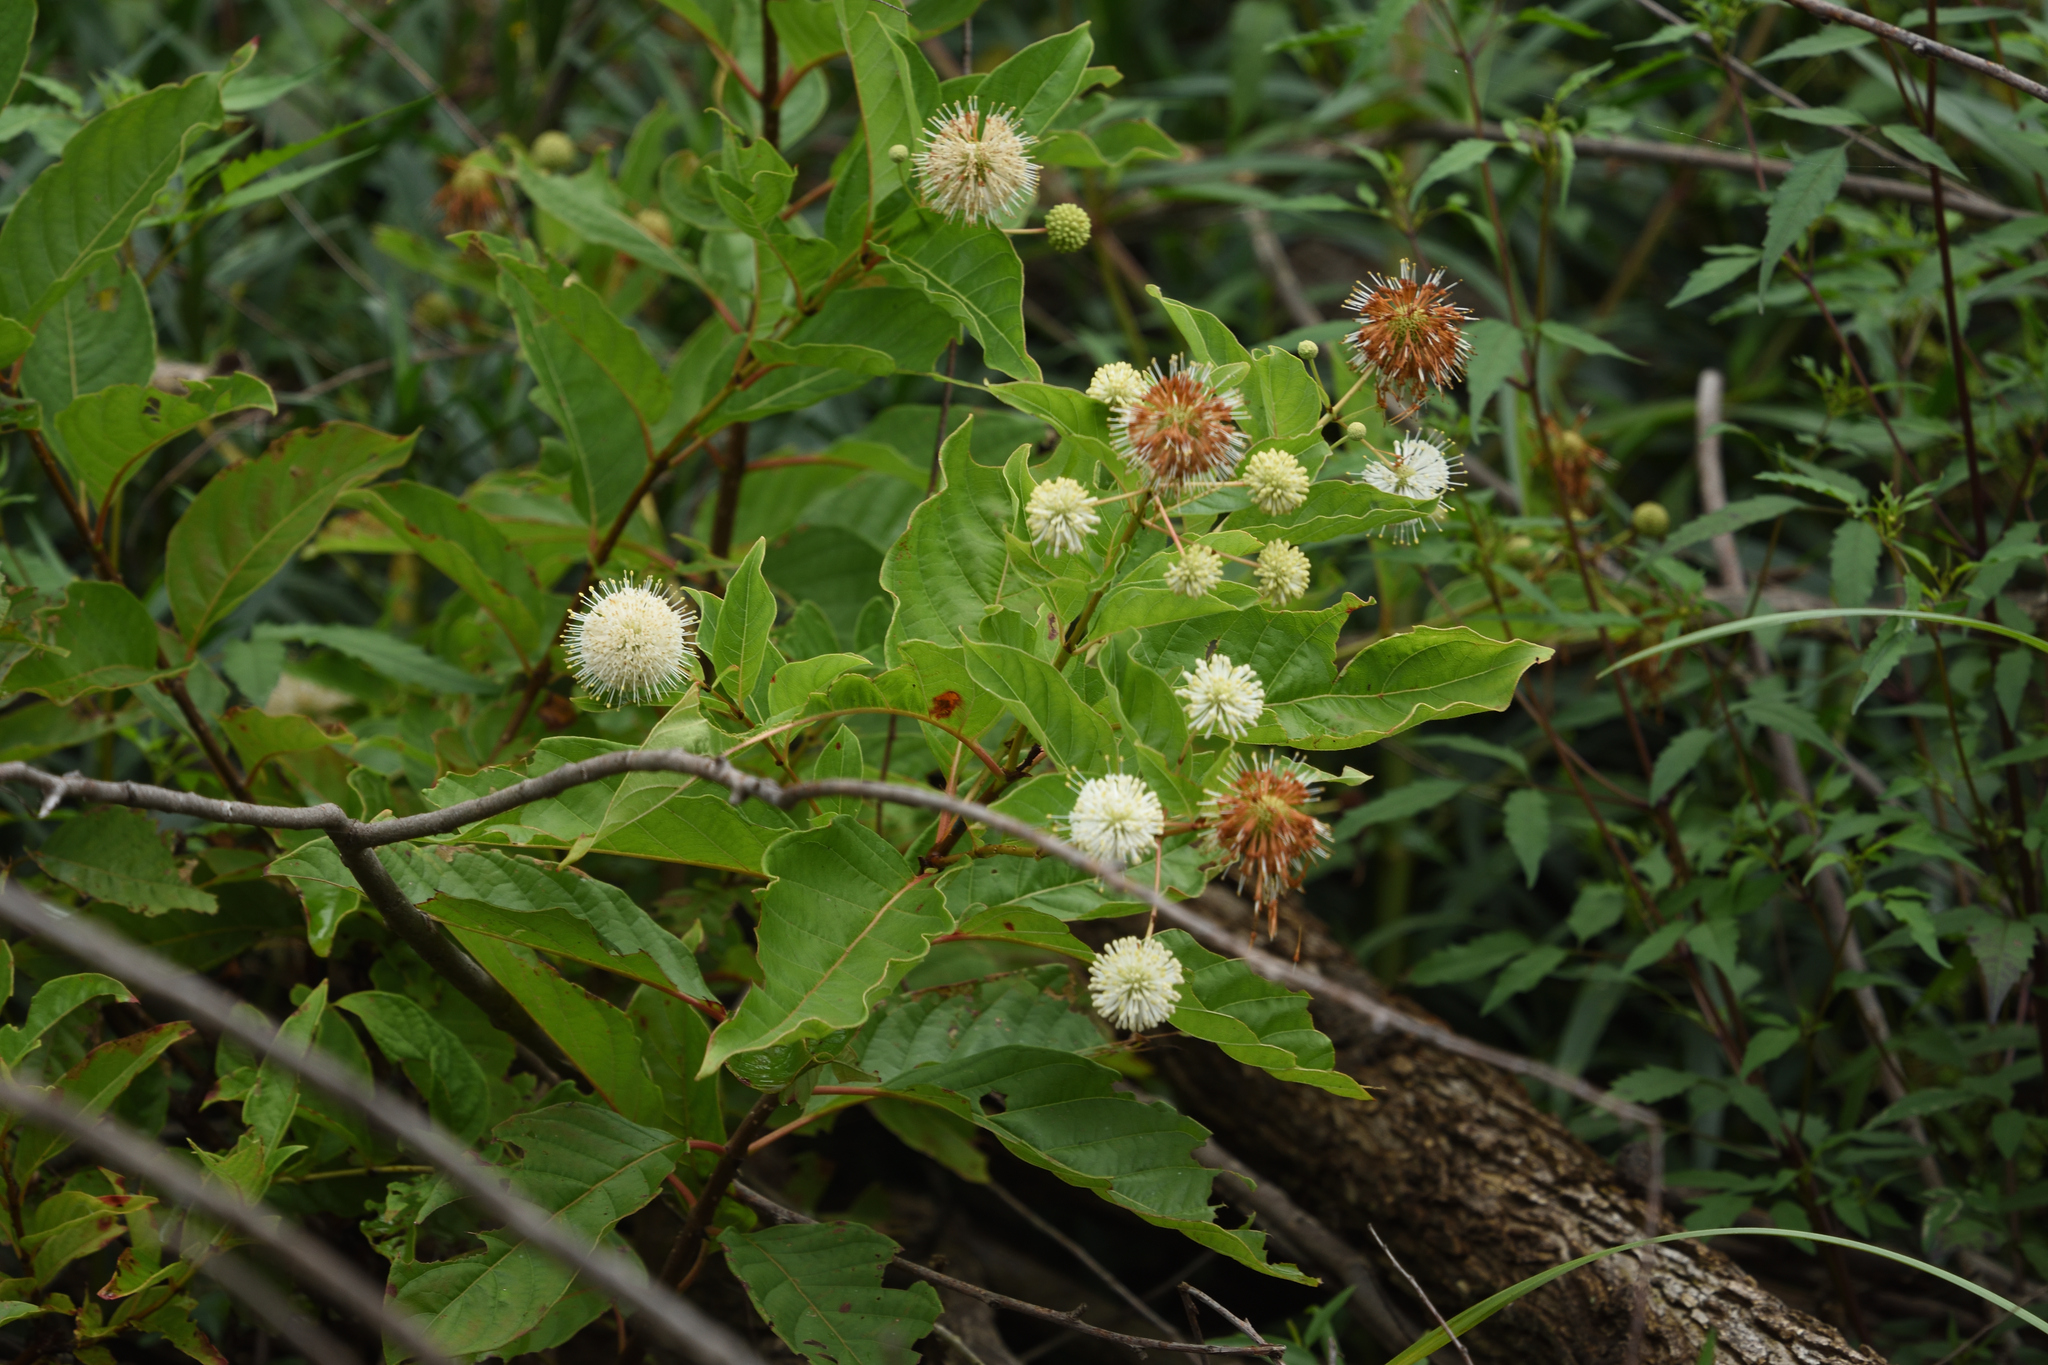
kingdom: Plantae
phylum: Tracheophyta
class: Magnoliopsida
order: Gentianales
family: Rubiaceae
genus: Cephalanthus
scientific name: Cephalanthus occidentalis
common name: Button-willow
